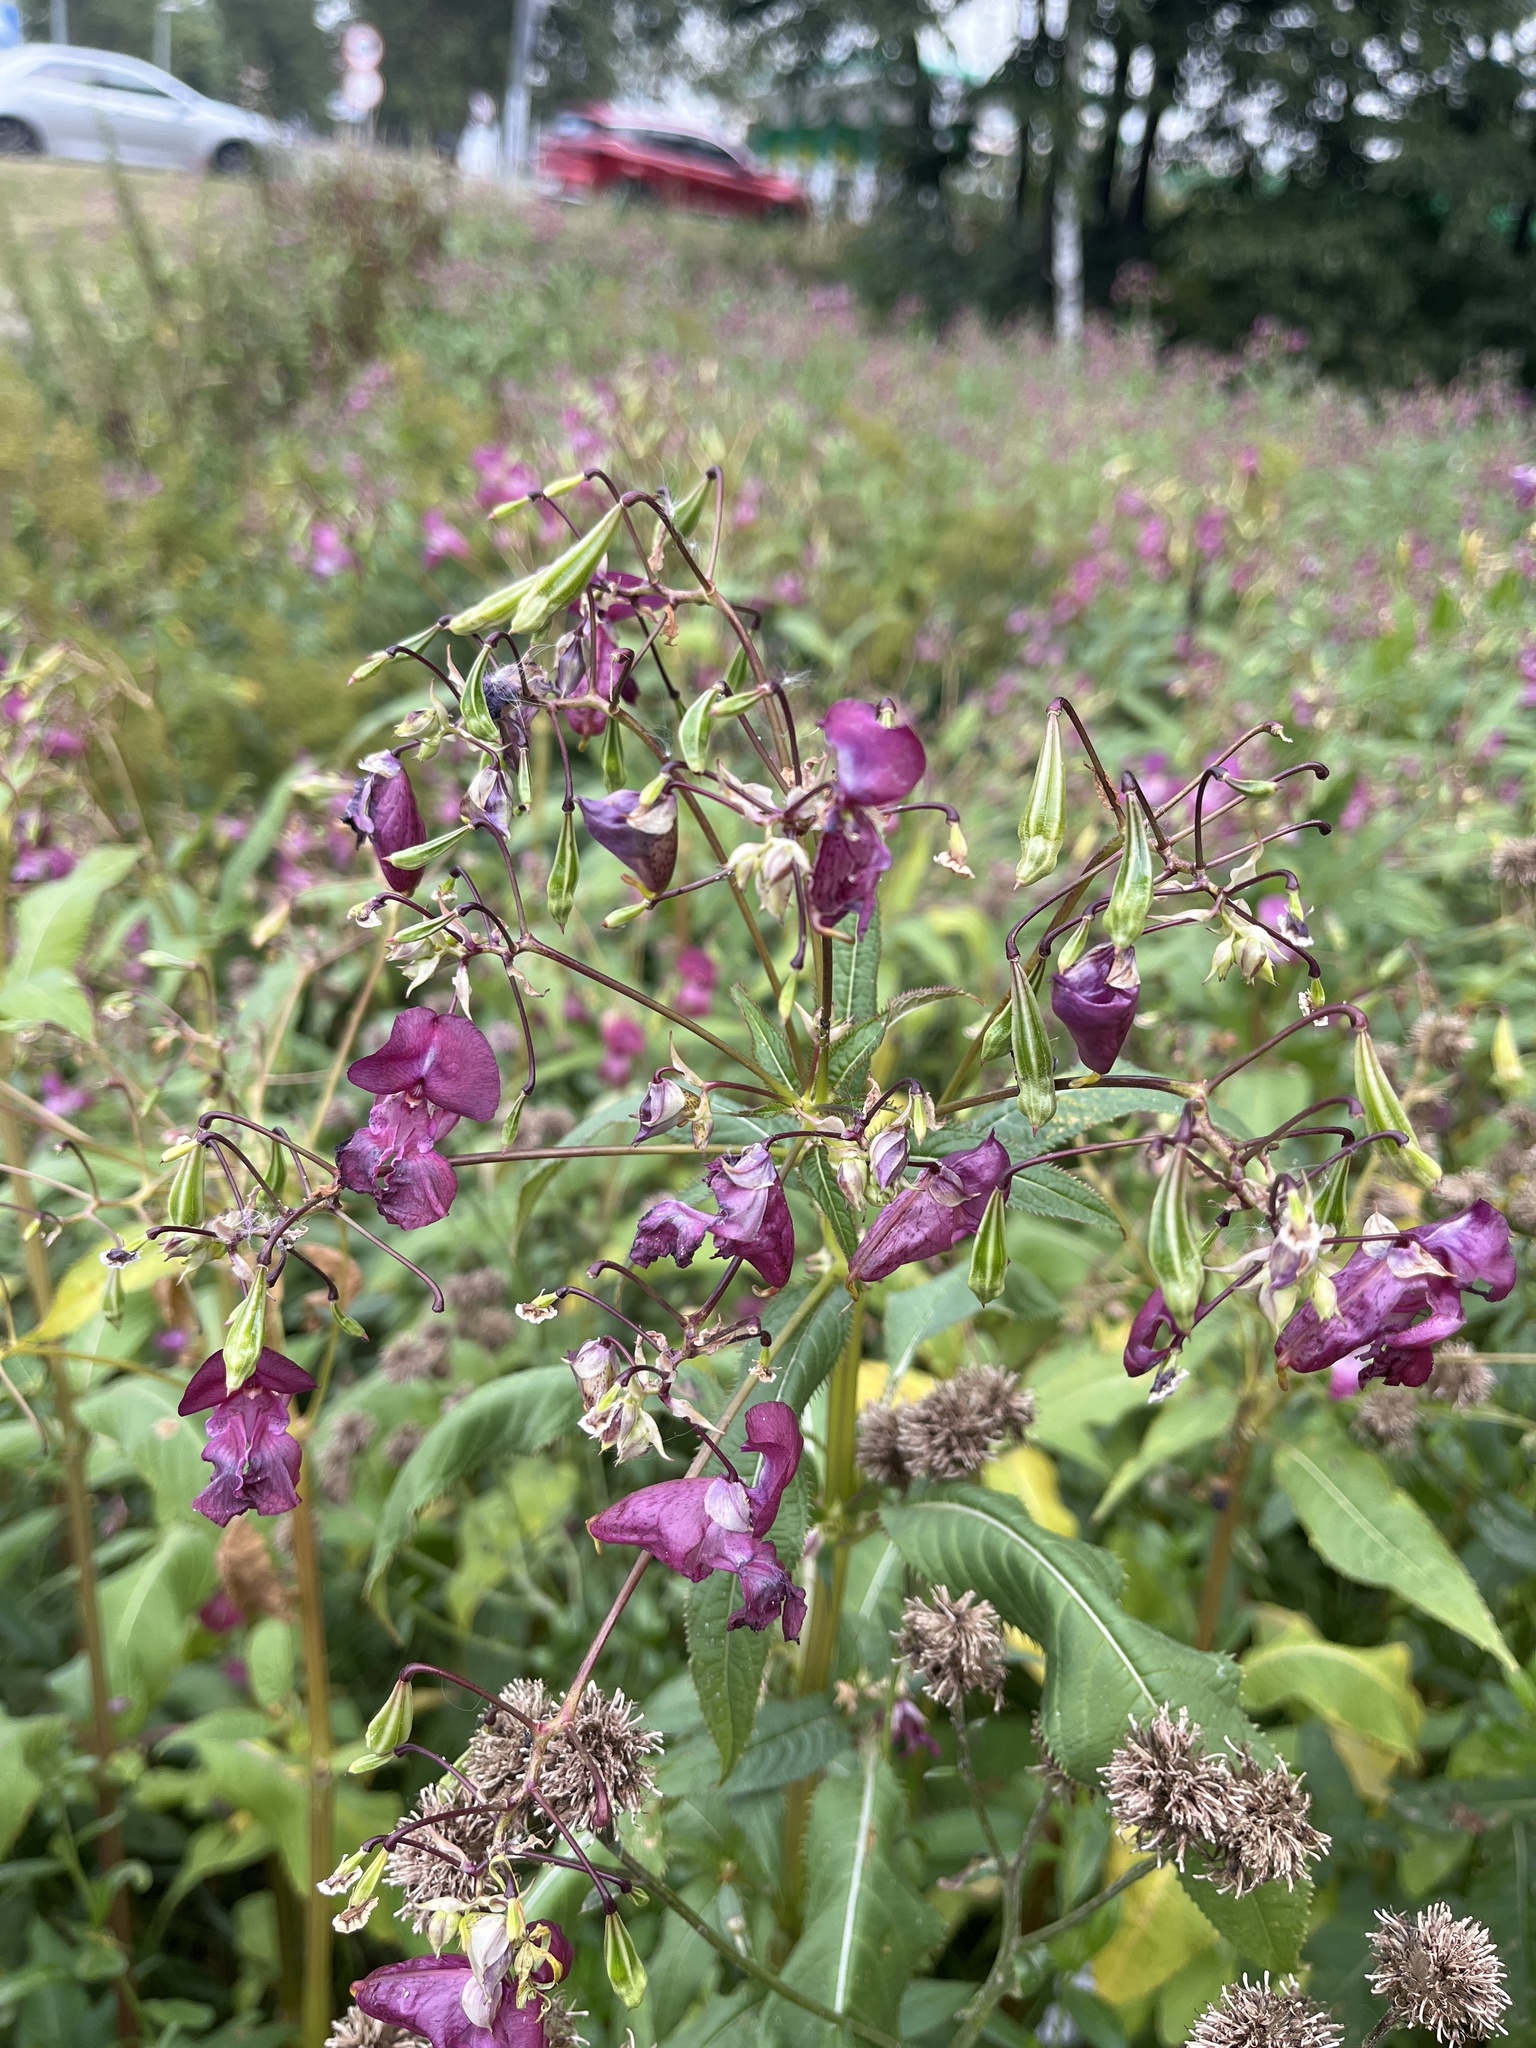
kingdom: Plantae
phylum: Tracheophyta
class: Magnoliopsida
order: Ericales
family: Balsaminaceae
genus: Impatiens
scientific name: Impatiens glandulifera
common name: Himalayan balsam
